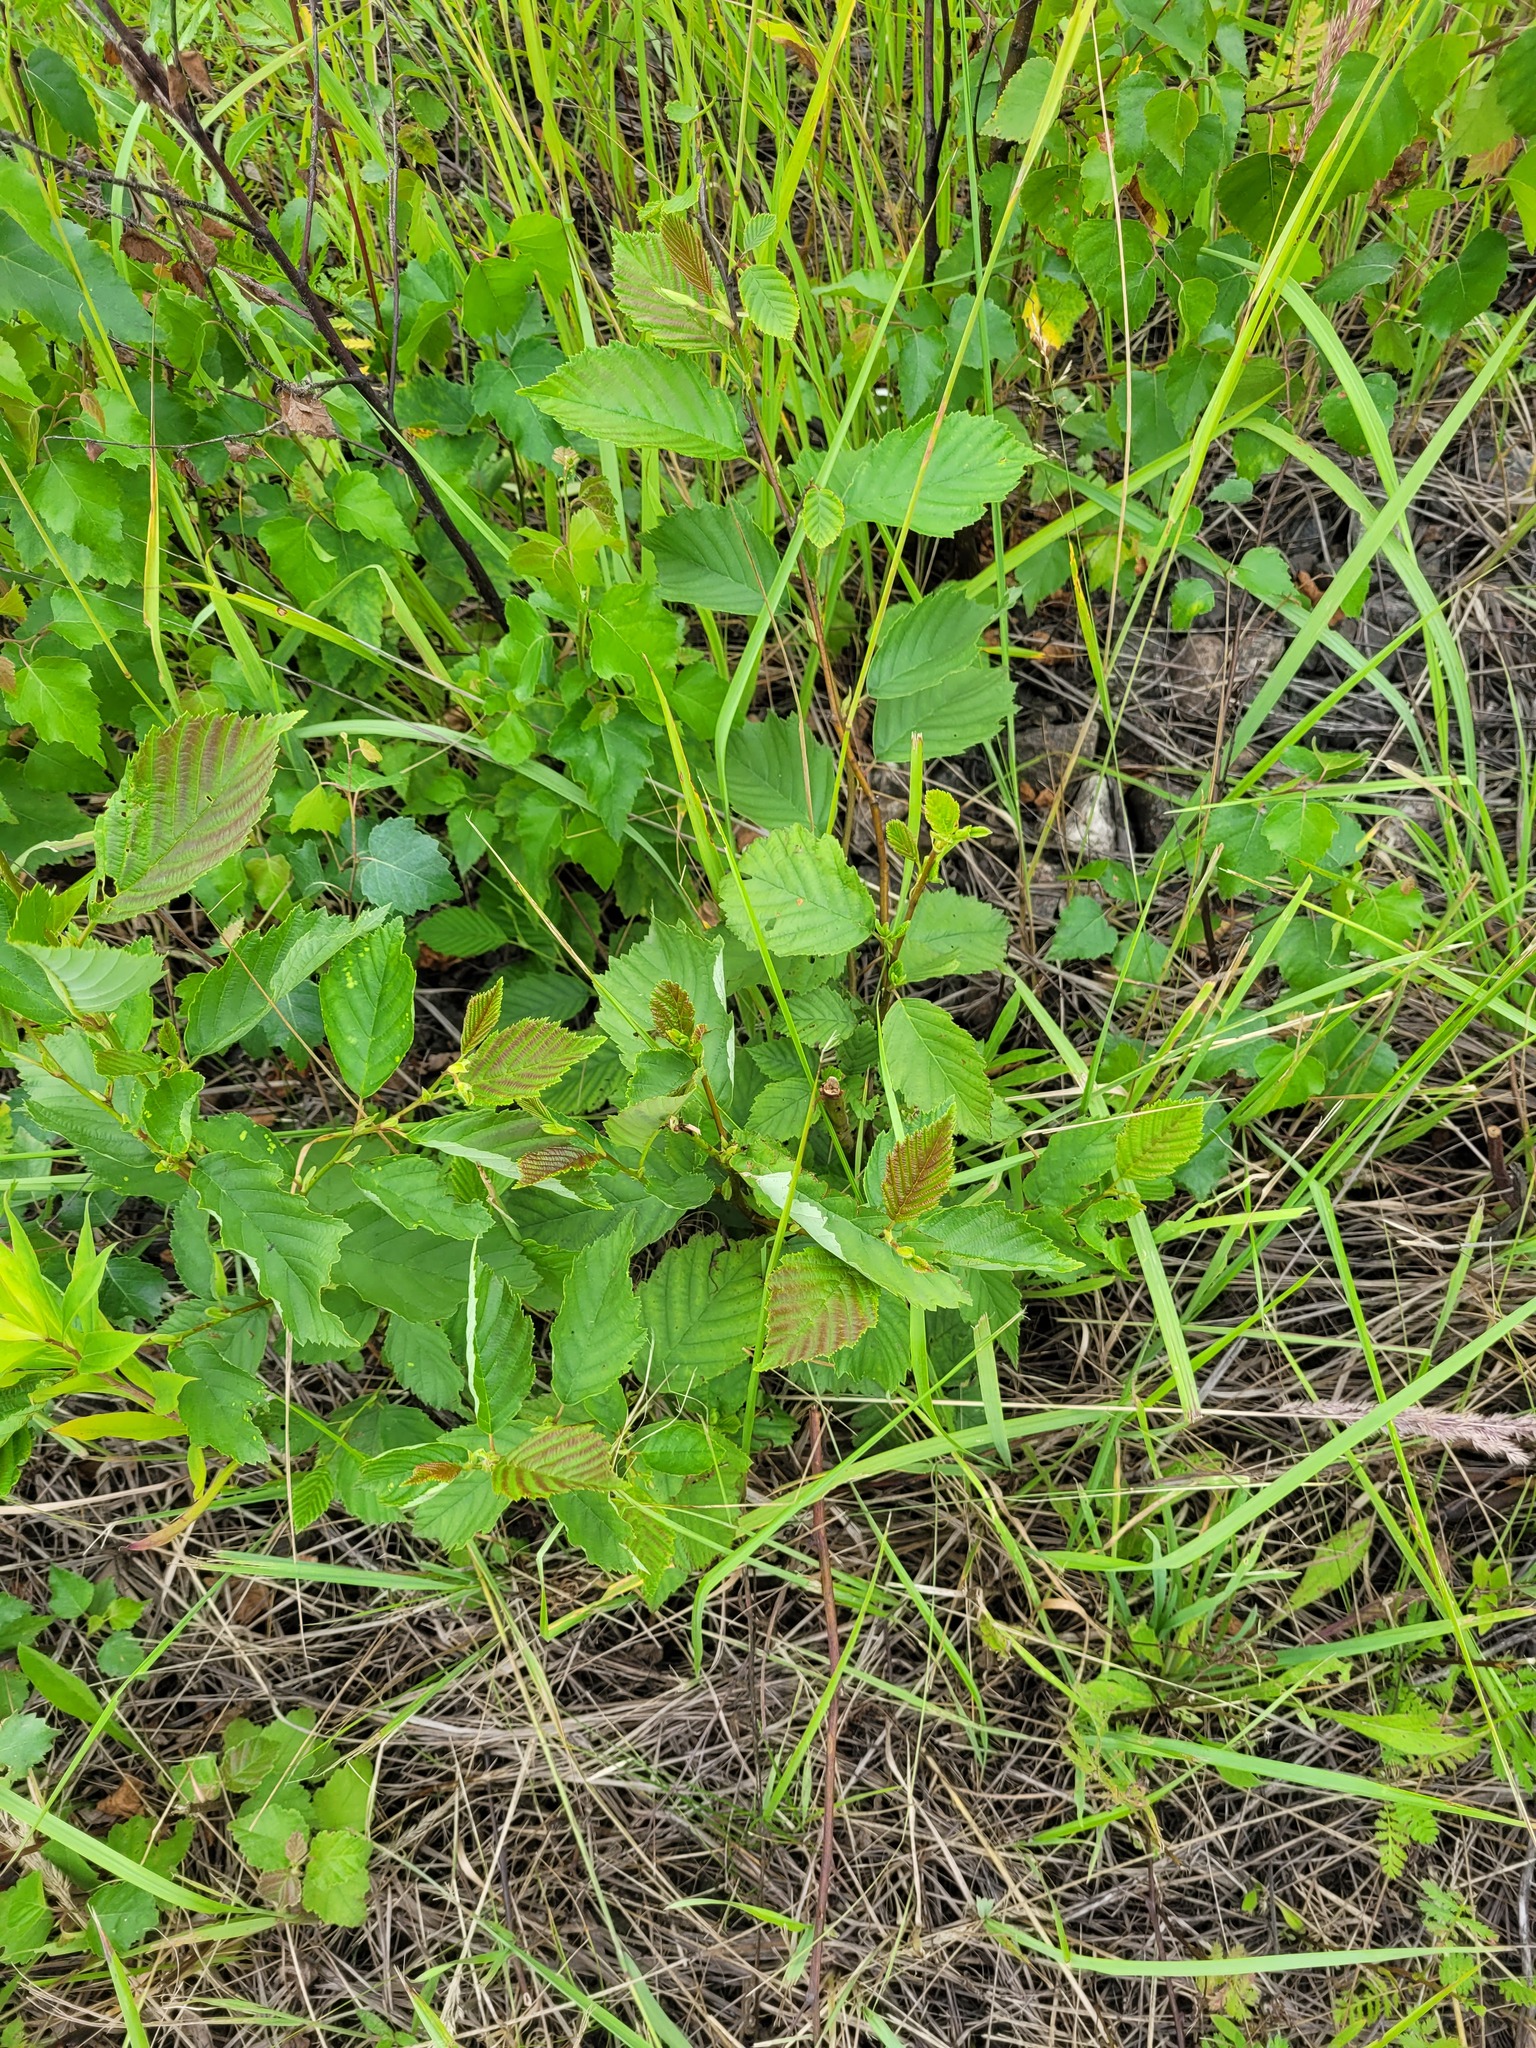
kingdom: Plantae
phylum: Tracheophyta
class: Magnoliopsida
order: Fagales
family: Betulaceae
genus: Alnus
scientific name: Alnus incana
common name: Grey alder
